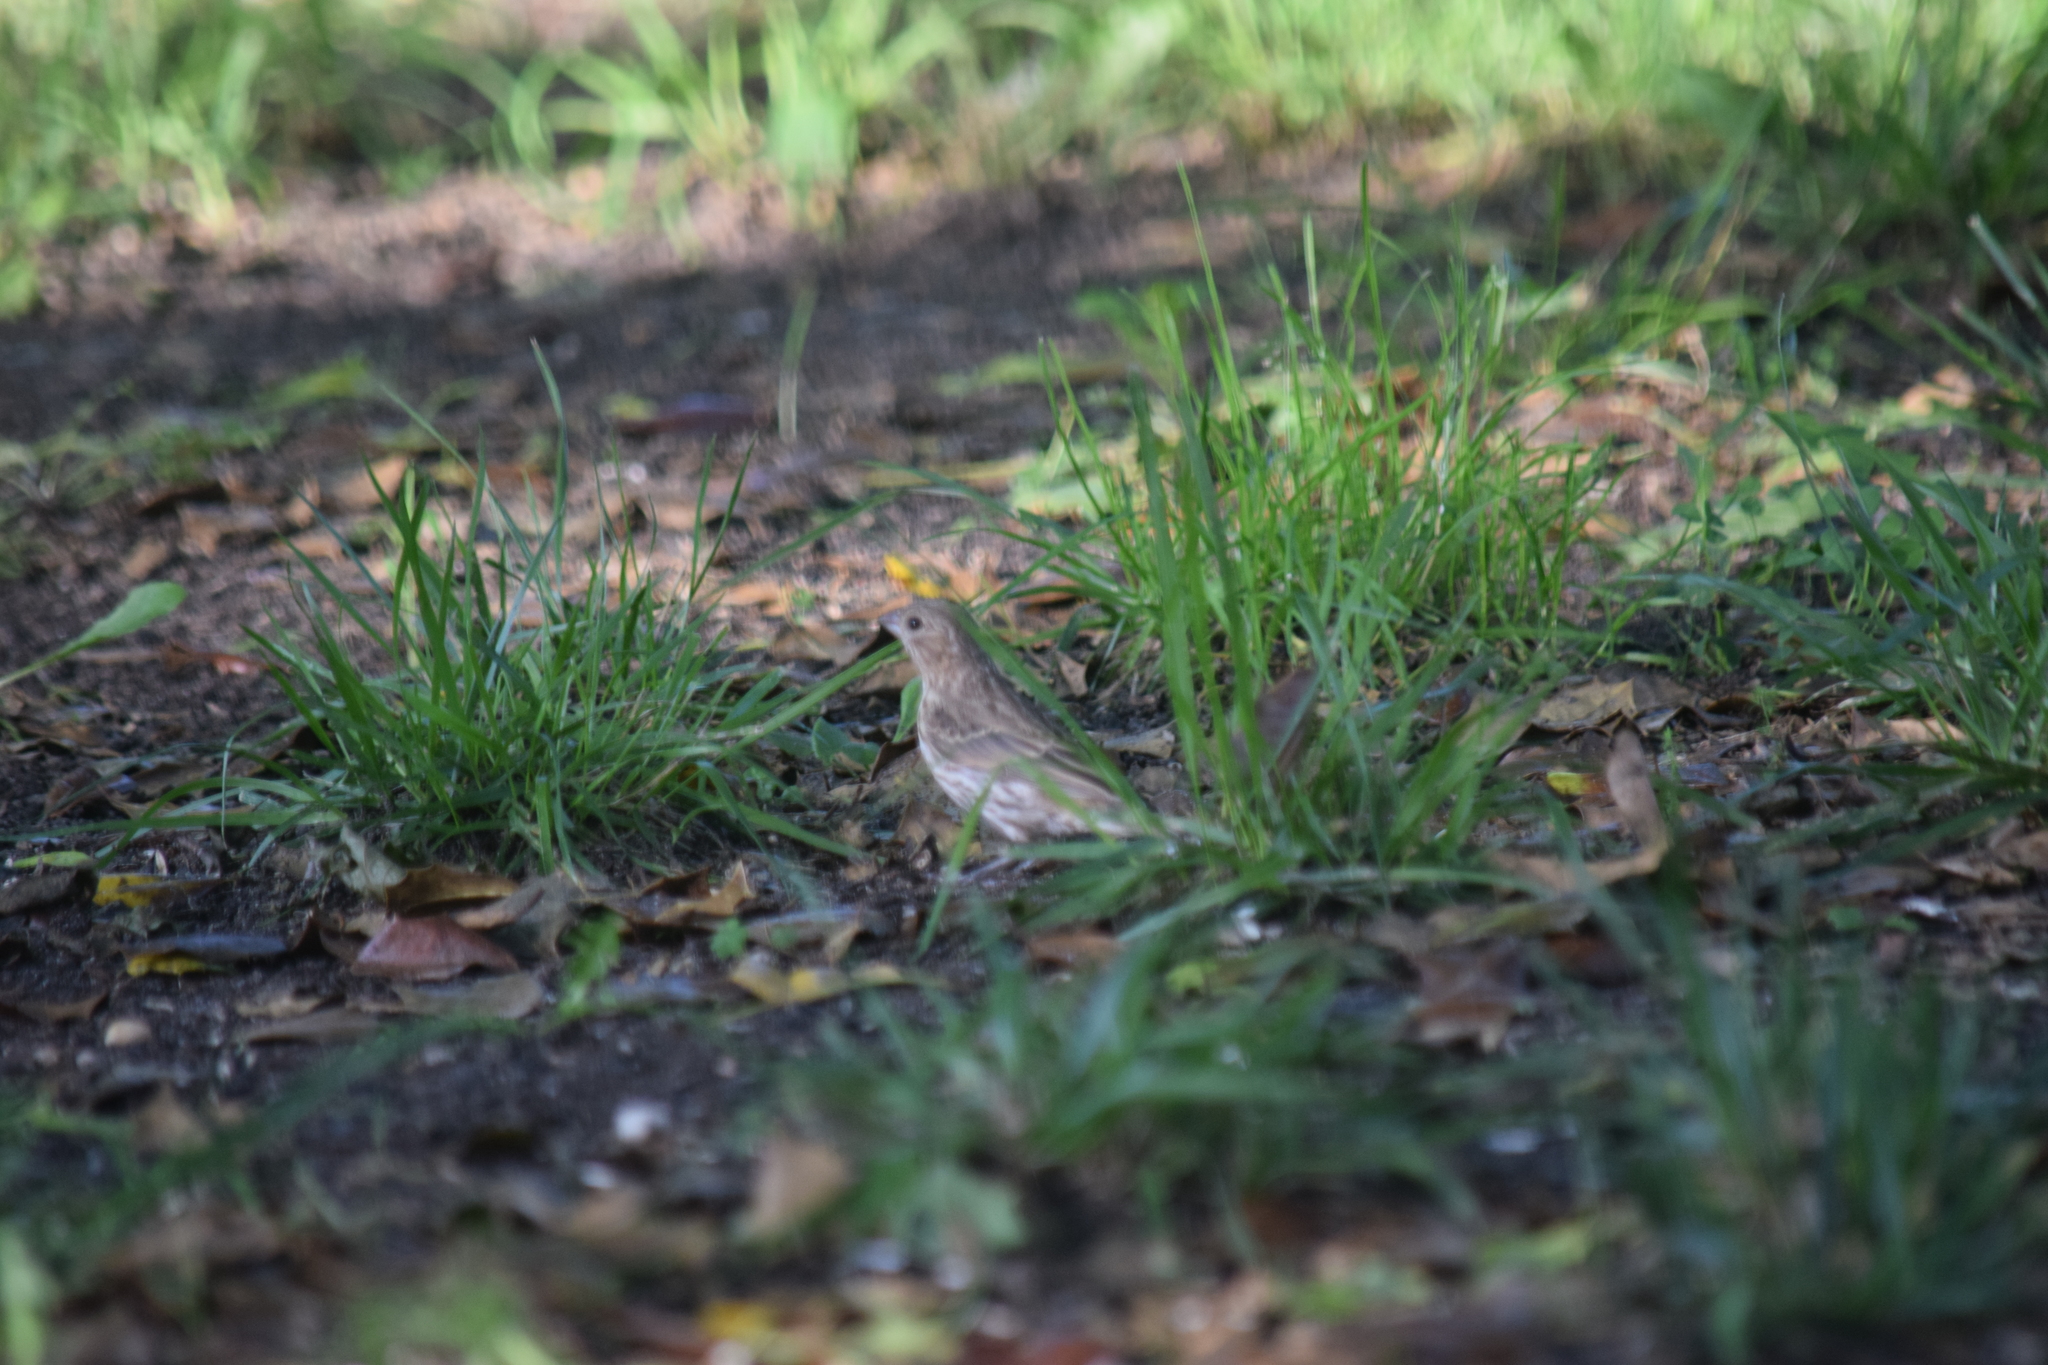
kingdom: Animalia
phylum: Chordata
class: Aves
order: Passeriformes
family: Fringillidae
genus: Haemorhous
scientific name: Haemorhous mexicanus
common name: House finch
